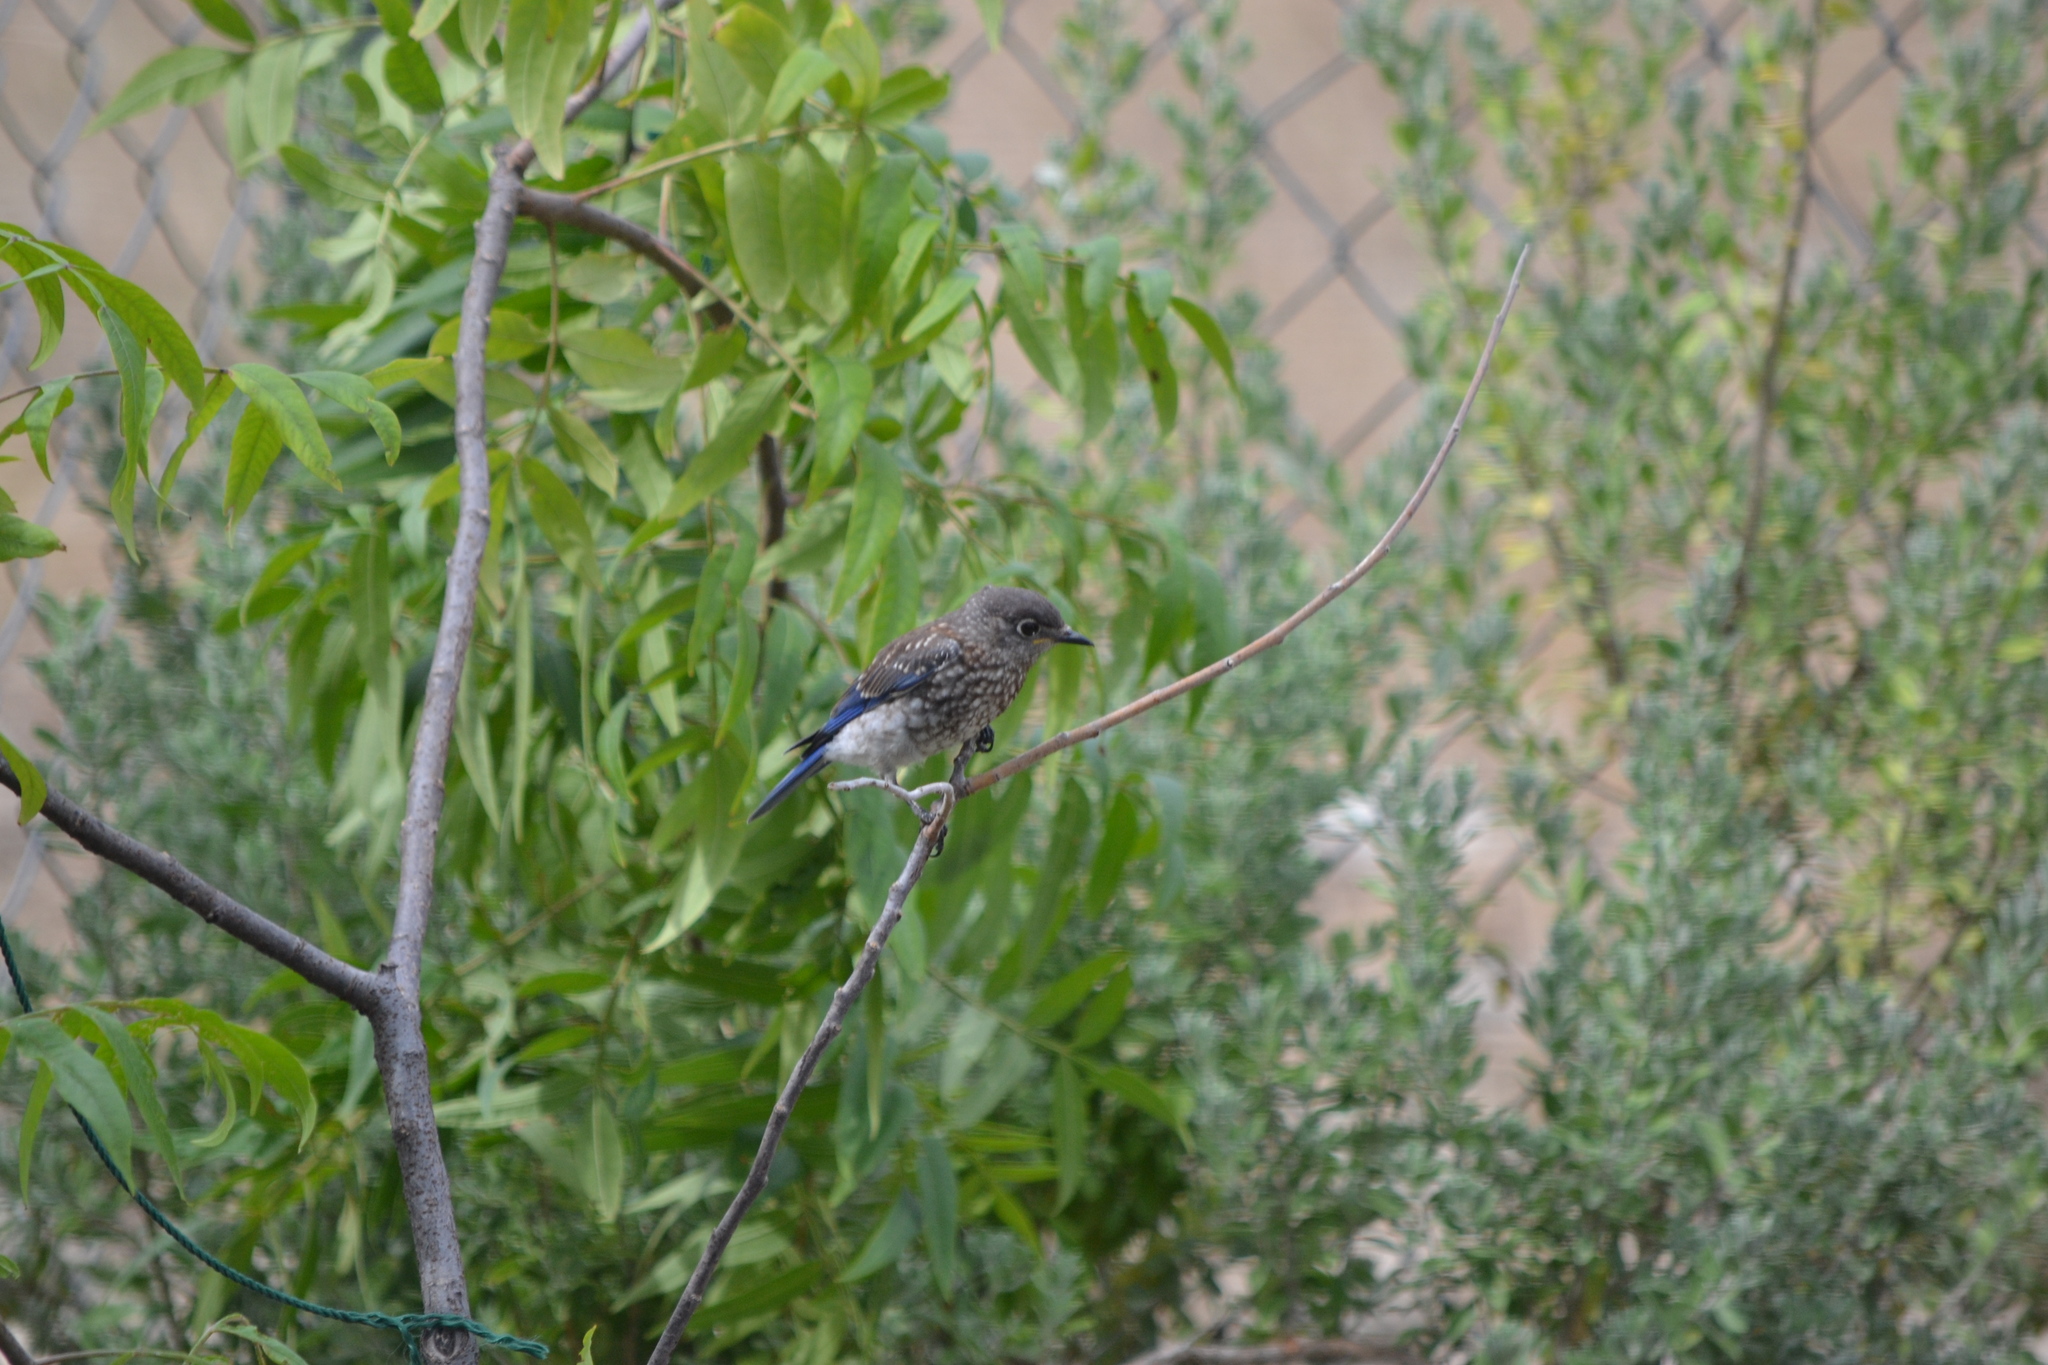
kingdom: Animalia
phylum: Chordata
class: Aves
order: Passeriformes
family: Turdidae
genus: Sialia
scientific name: Sialia sialis
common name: Eastern bluebird
